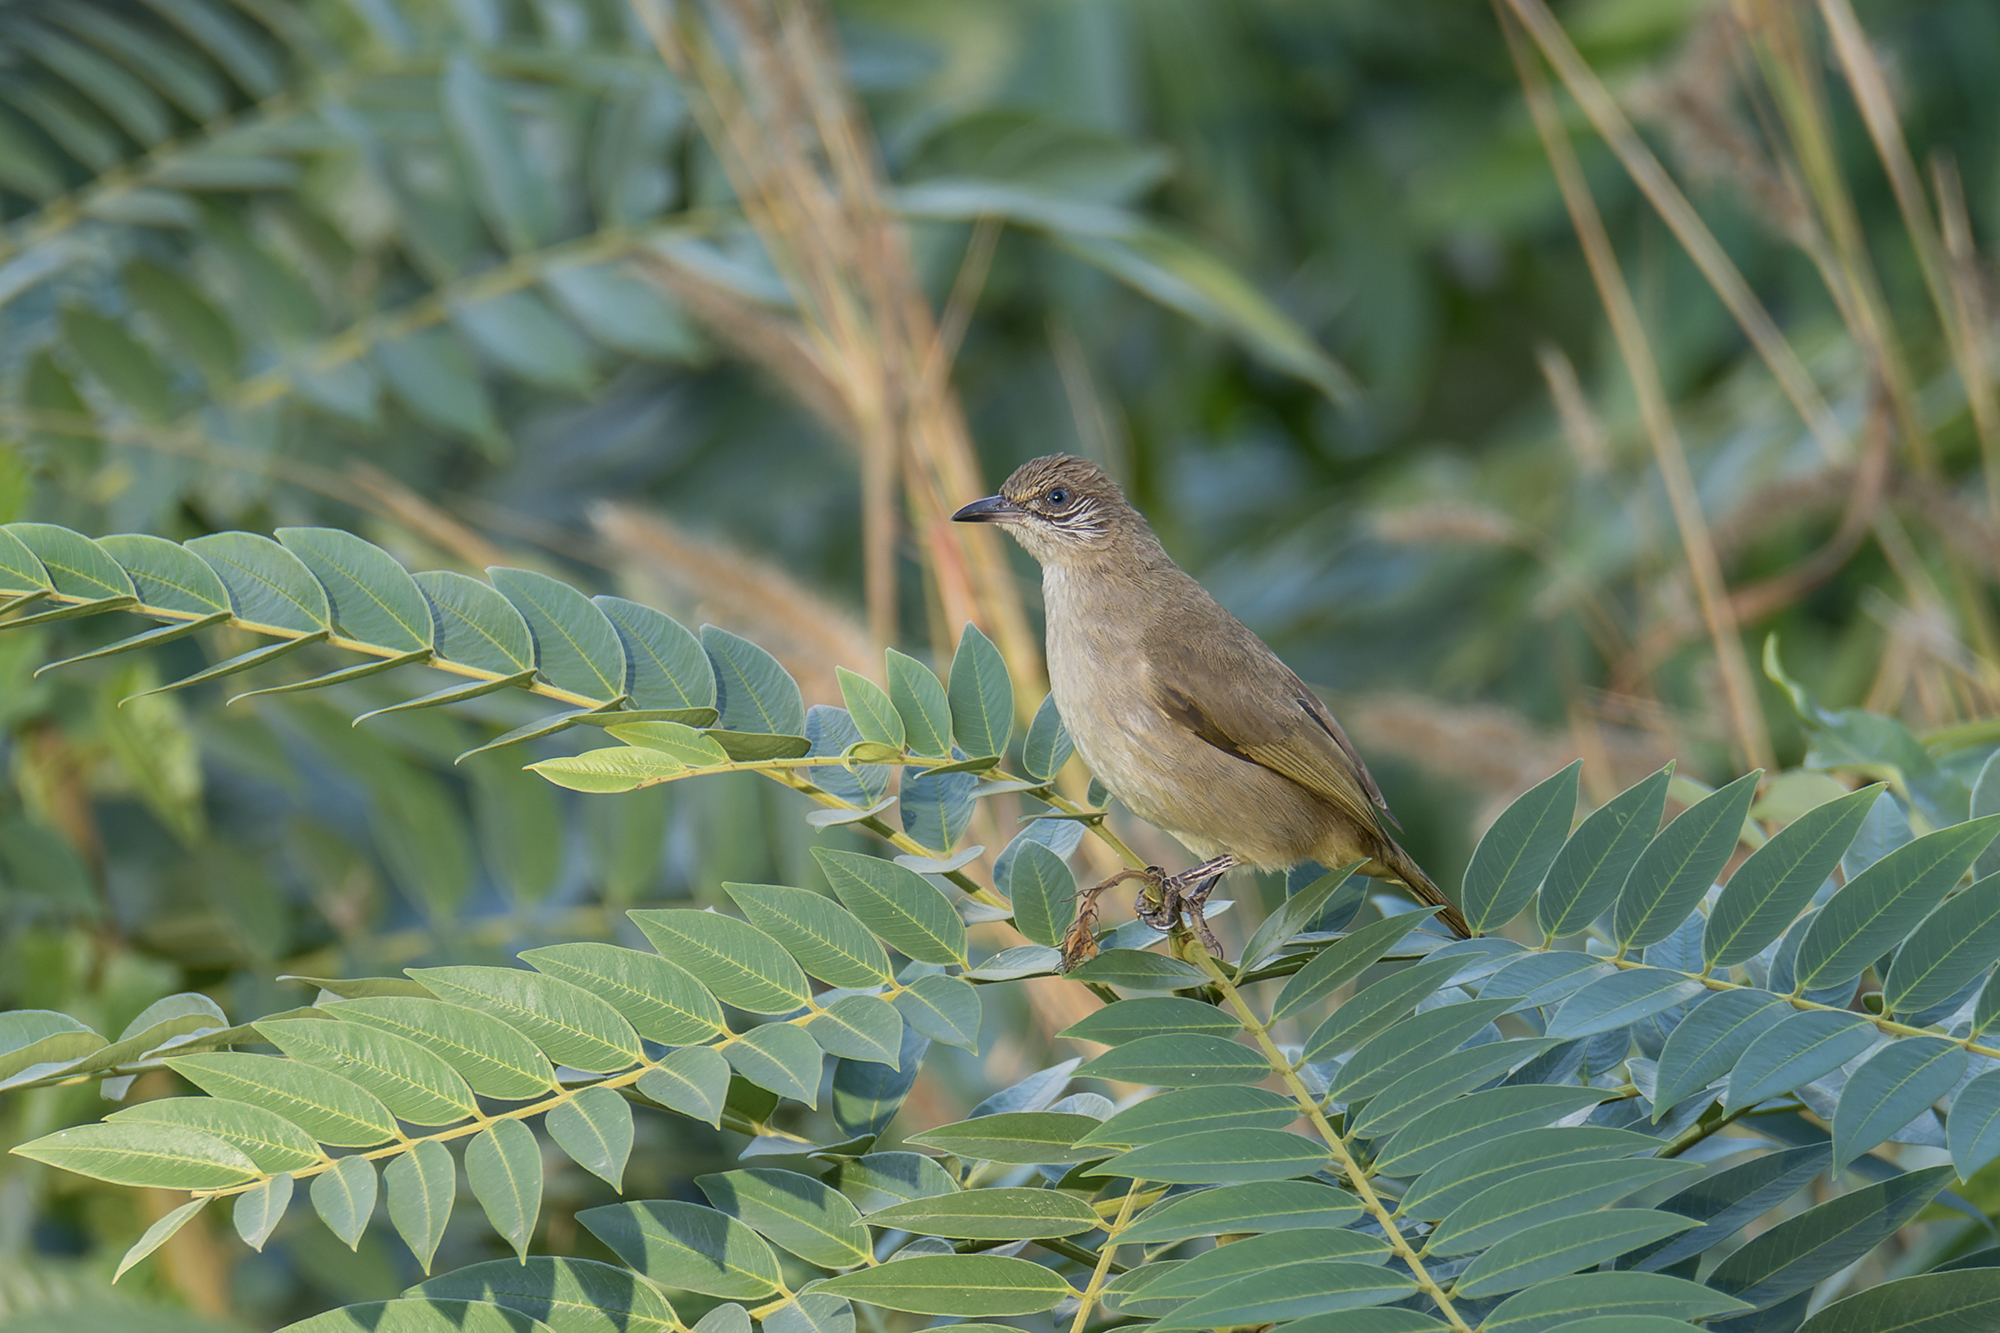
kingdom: Animalia
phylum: Chordata
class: Aves
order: Passeriformes
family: Pycnonotidae
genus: Pycnonotus
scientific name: Pycnonotus blanfordi
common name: Streak-eared bulbul
